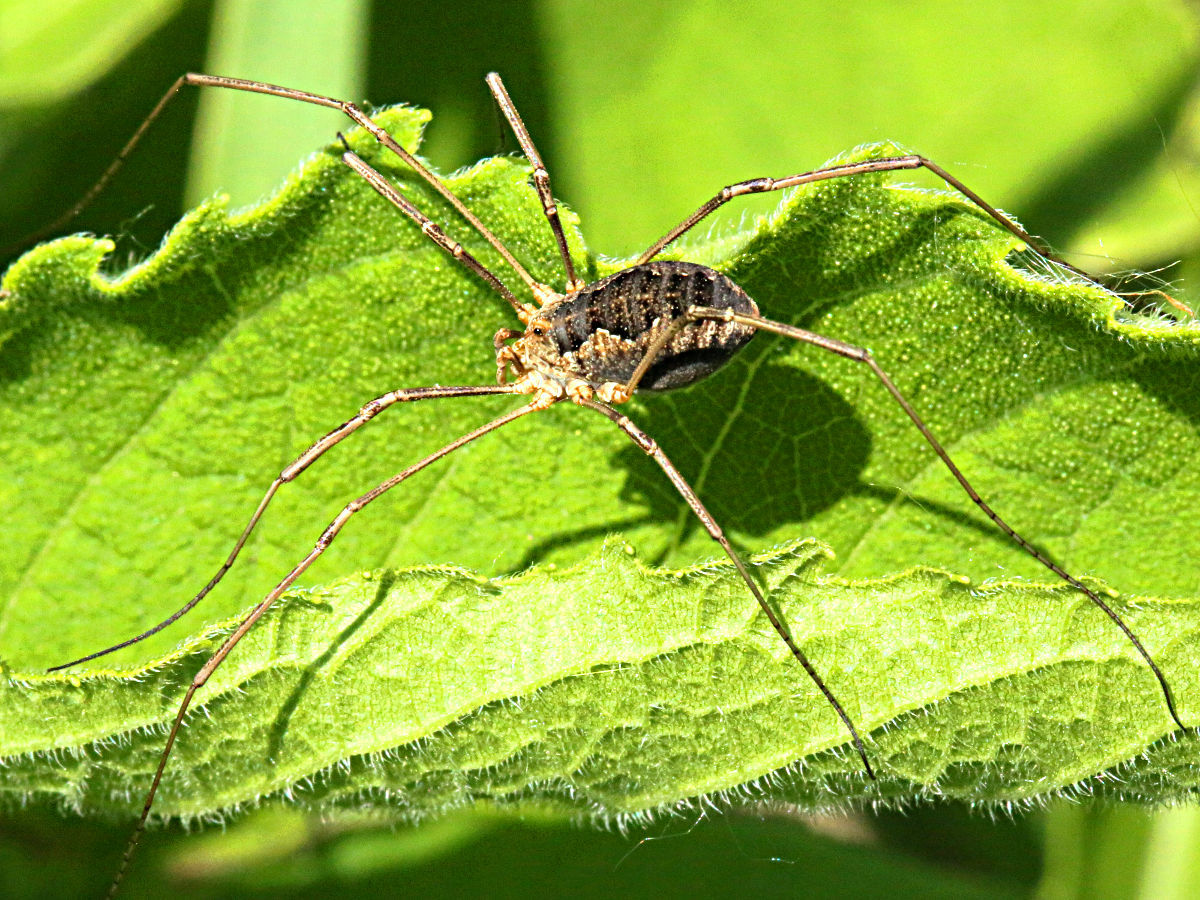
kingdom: Animalia
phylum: Arthropoda
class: Arachnida
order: Opiliones
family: Phalangiidae
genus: Phalangium
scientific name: Phalangium opilio
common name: Daddy longleg
